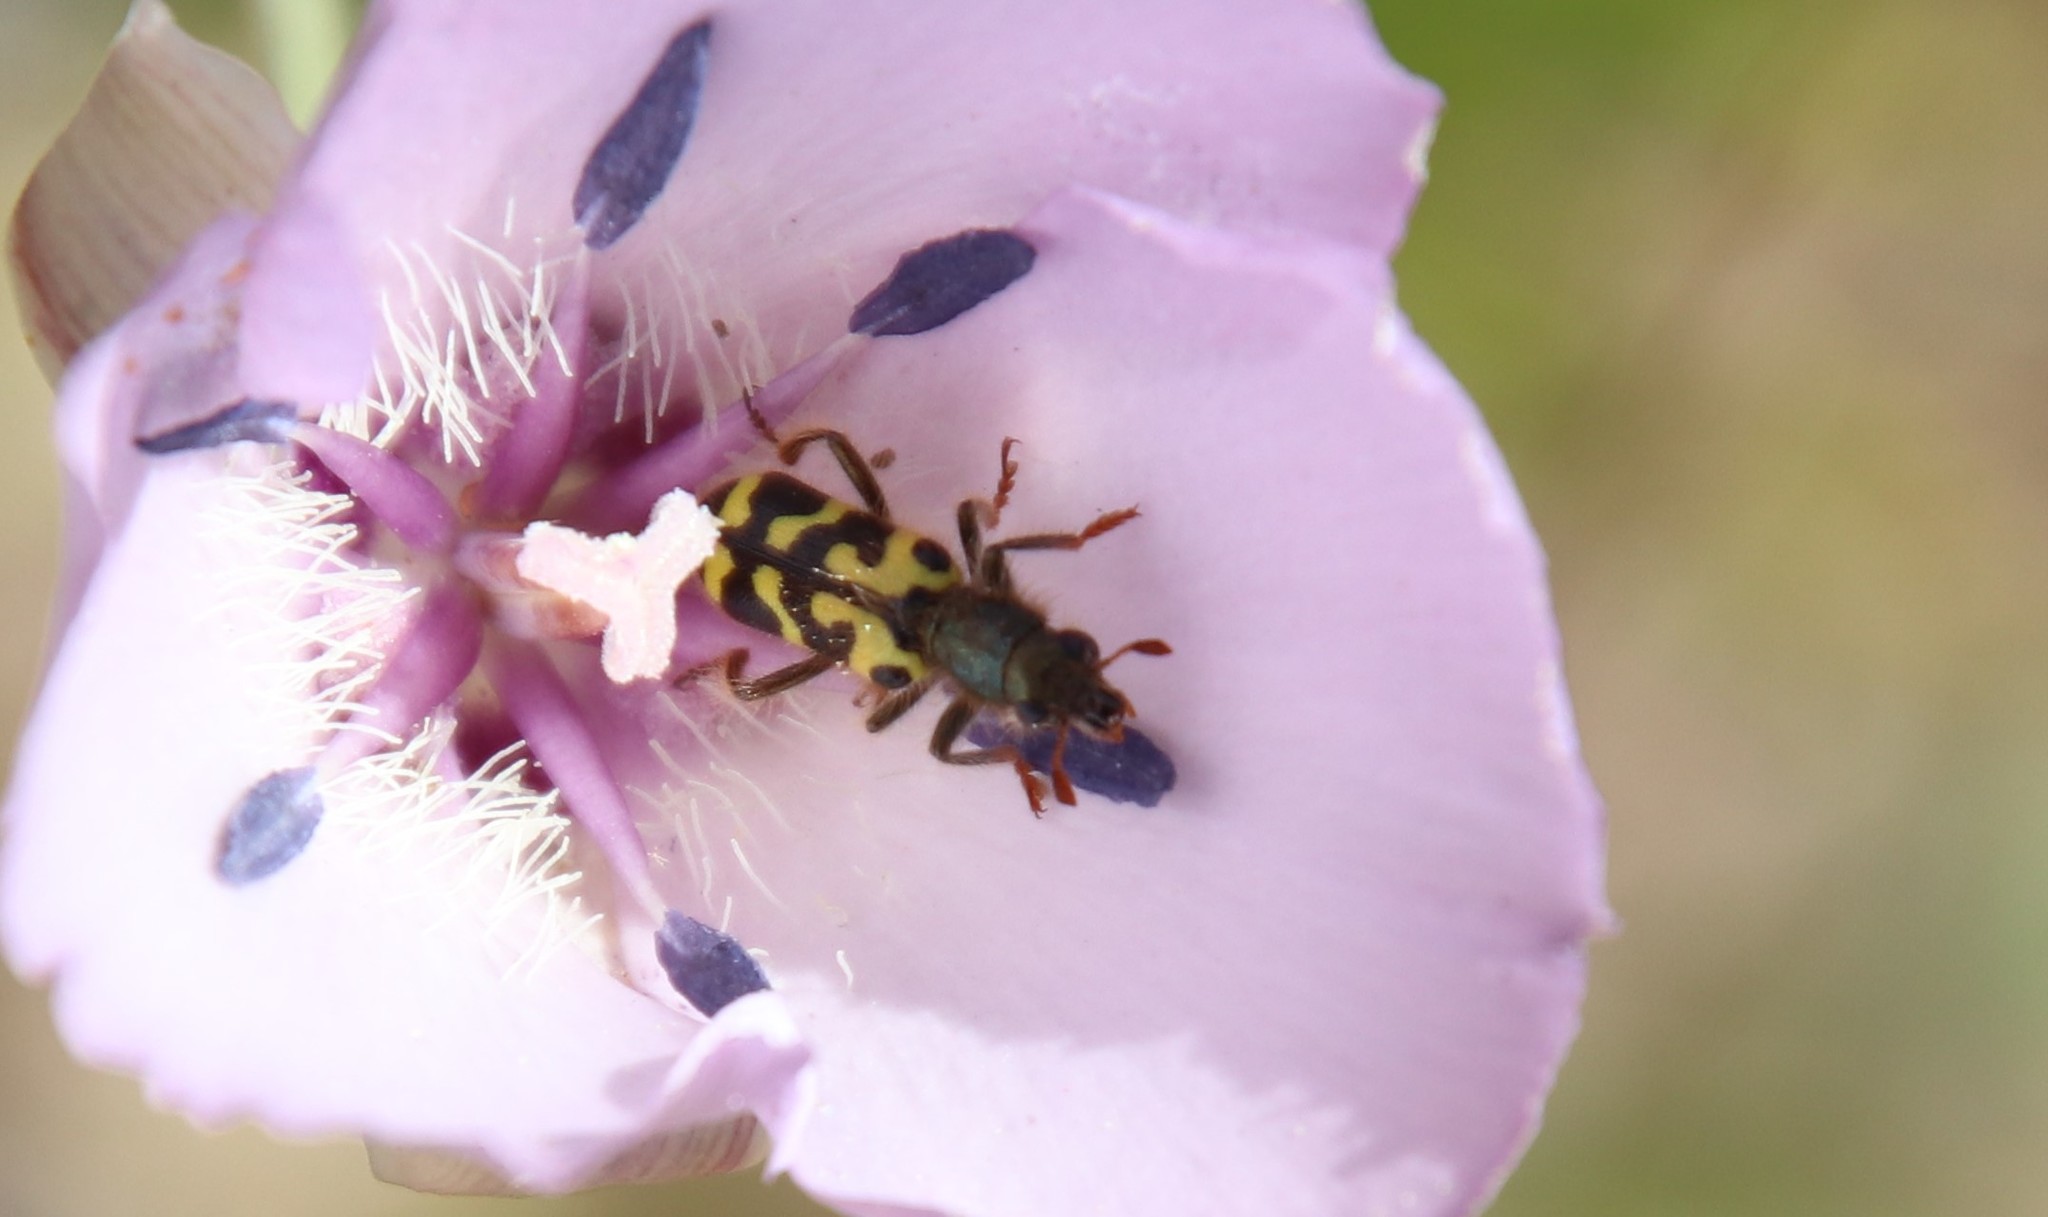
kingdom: Animalia
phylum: Arthropoda
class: Insecta
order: Coleoptera
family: Cleridae
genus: Trichodes
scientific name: Trichodes ornatus
